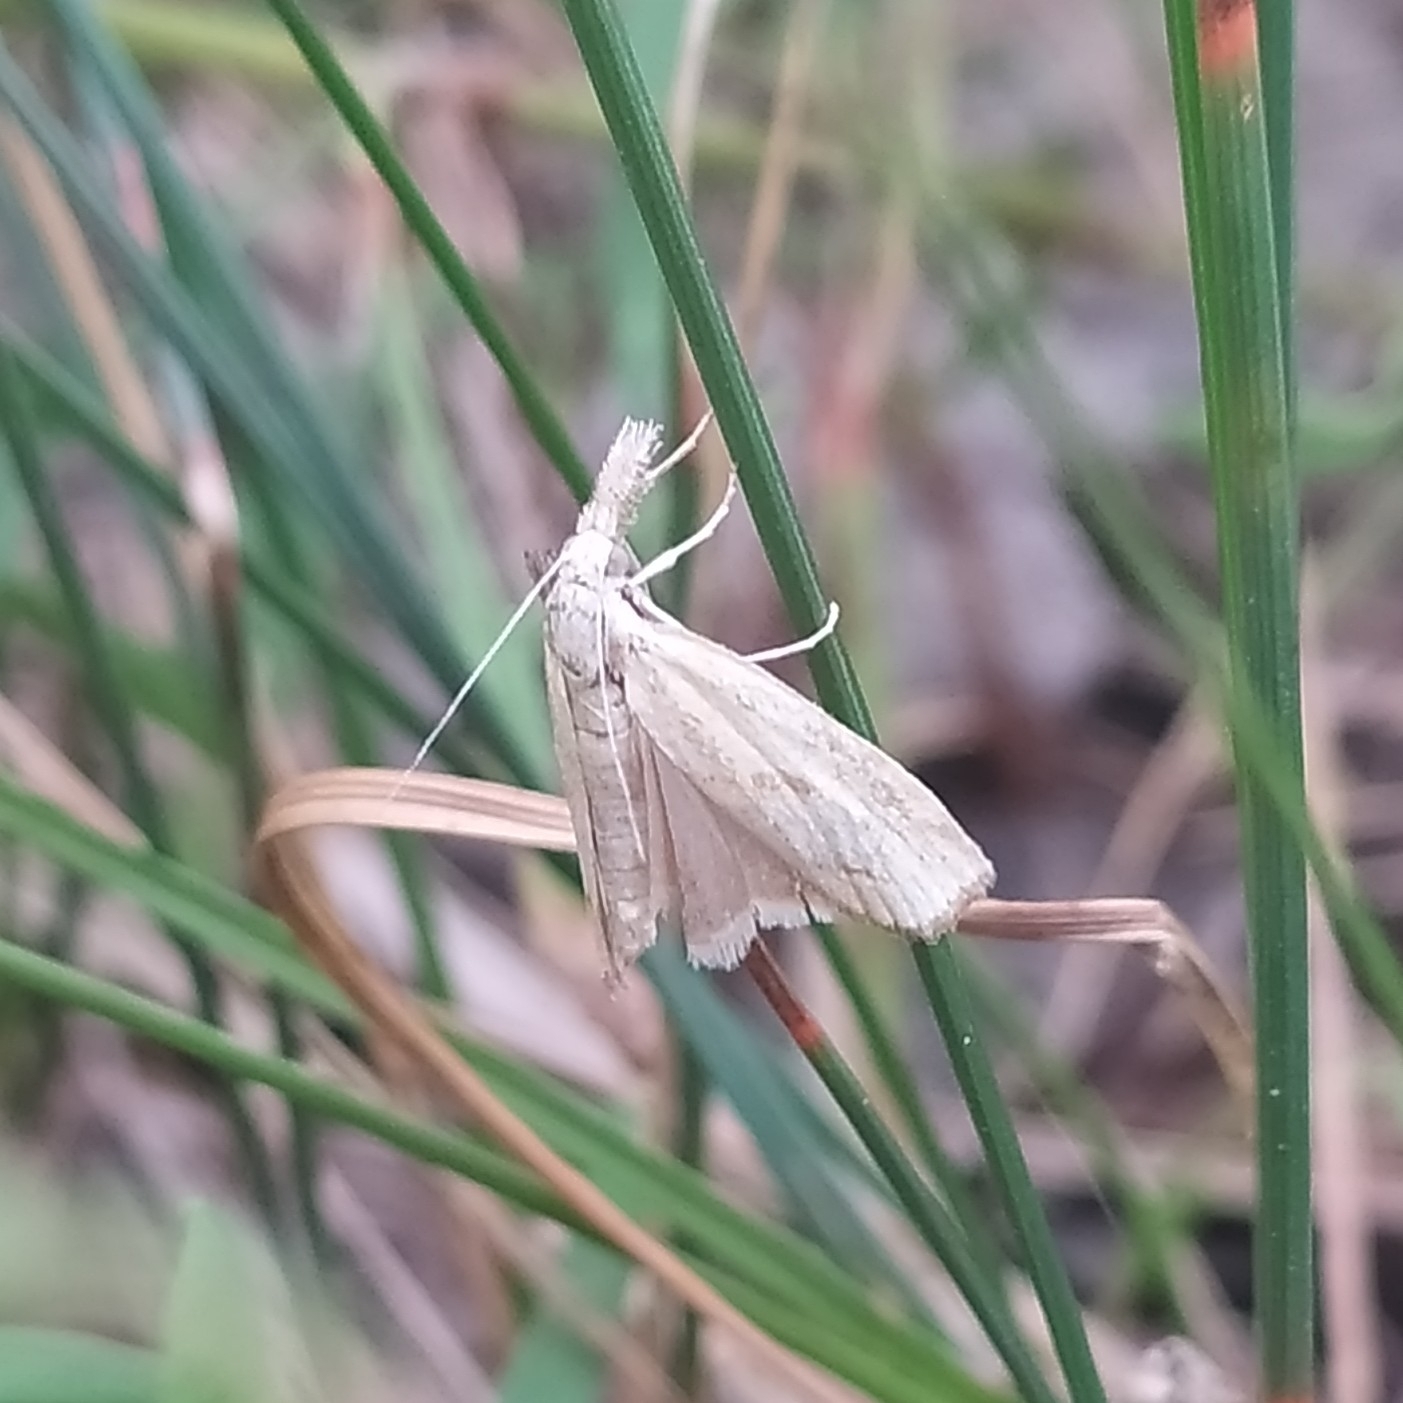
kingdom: Animalia
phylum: Arthropoda
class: Insecta
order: Lepidoptera
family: Crambidae
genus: Agriphila
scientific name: Agriphila inquinatella
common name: Barred grass-veneer
